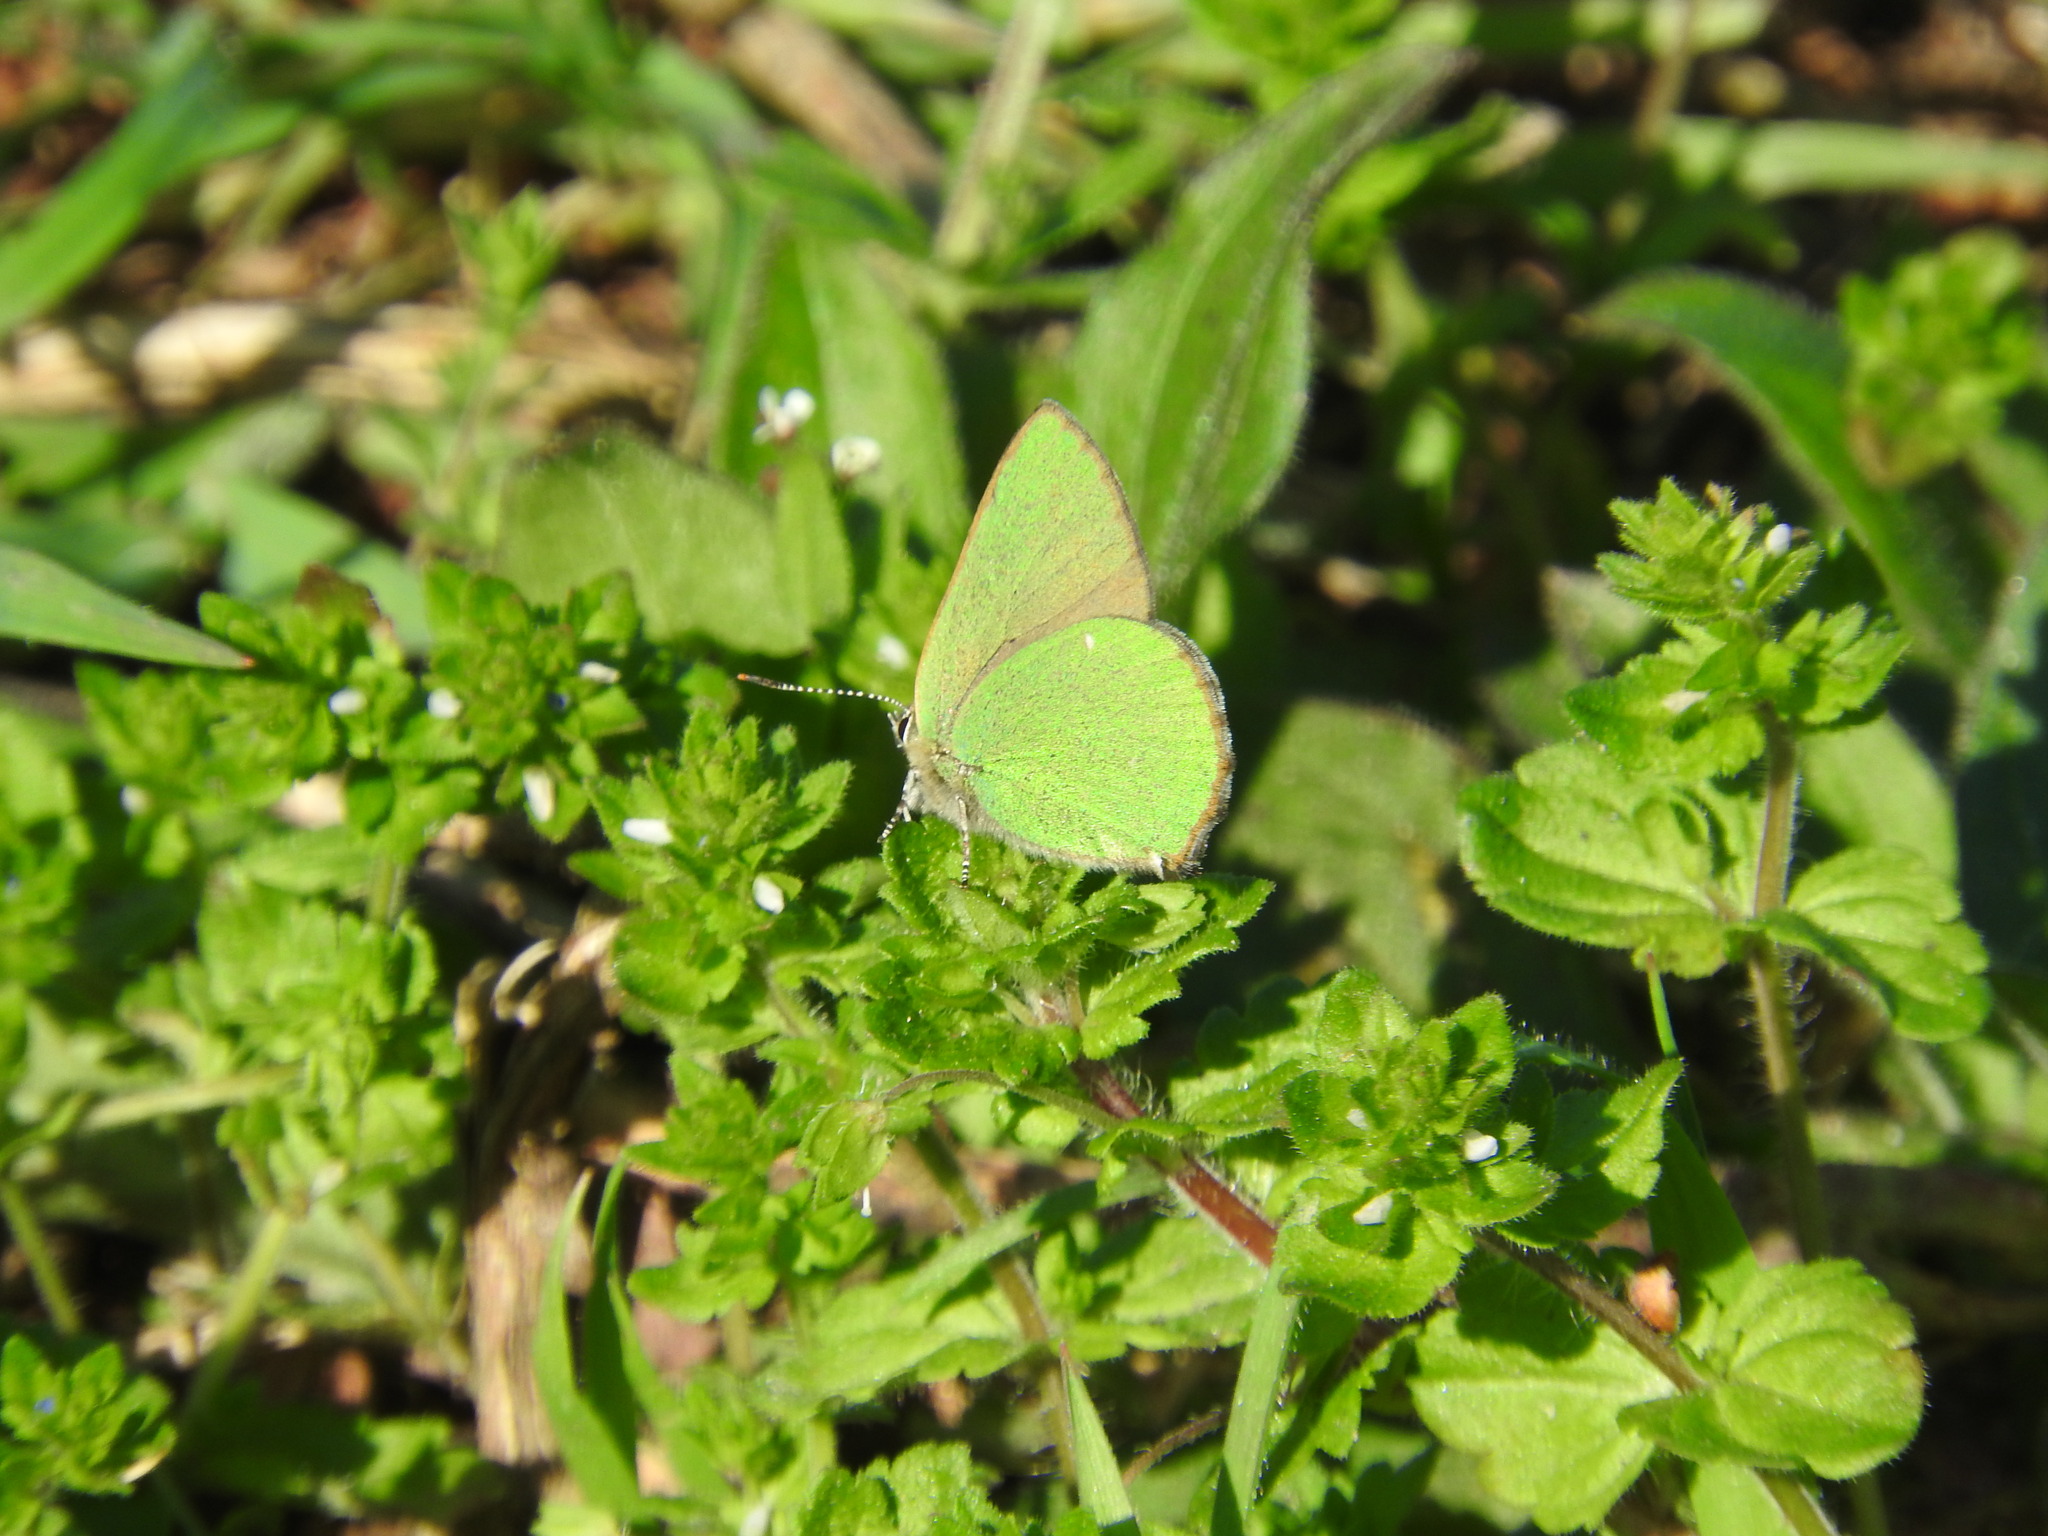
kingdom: Animalia
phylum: Arthropoda
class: Insecta
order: Lepidoptera
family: Lycaenidae
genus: Callophrys
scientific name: Callophrys rubi
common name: Green hairstreak
